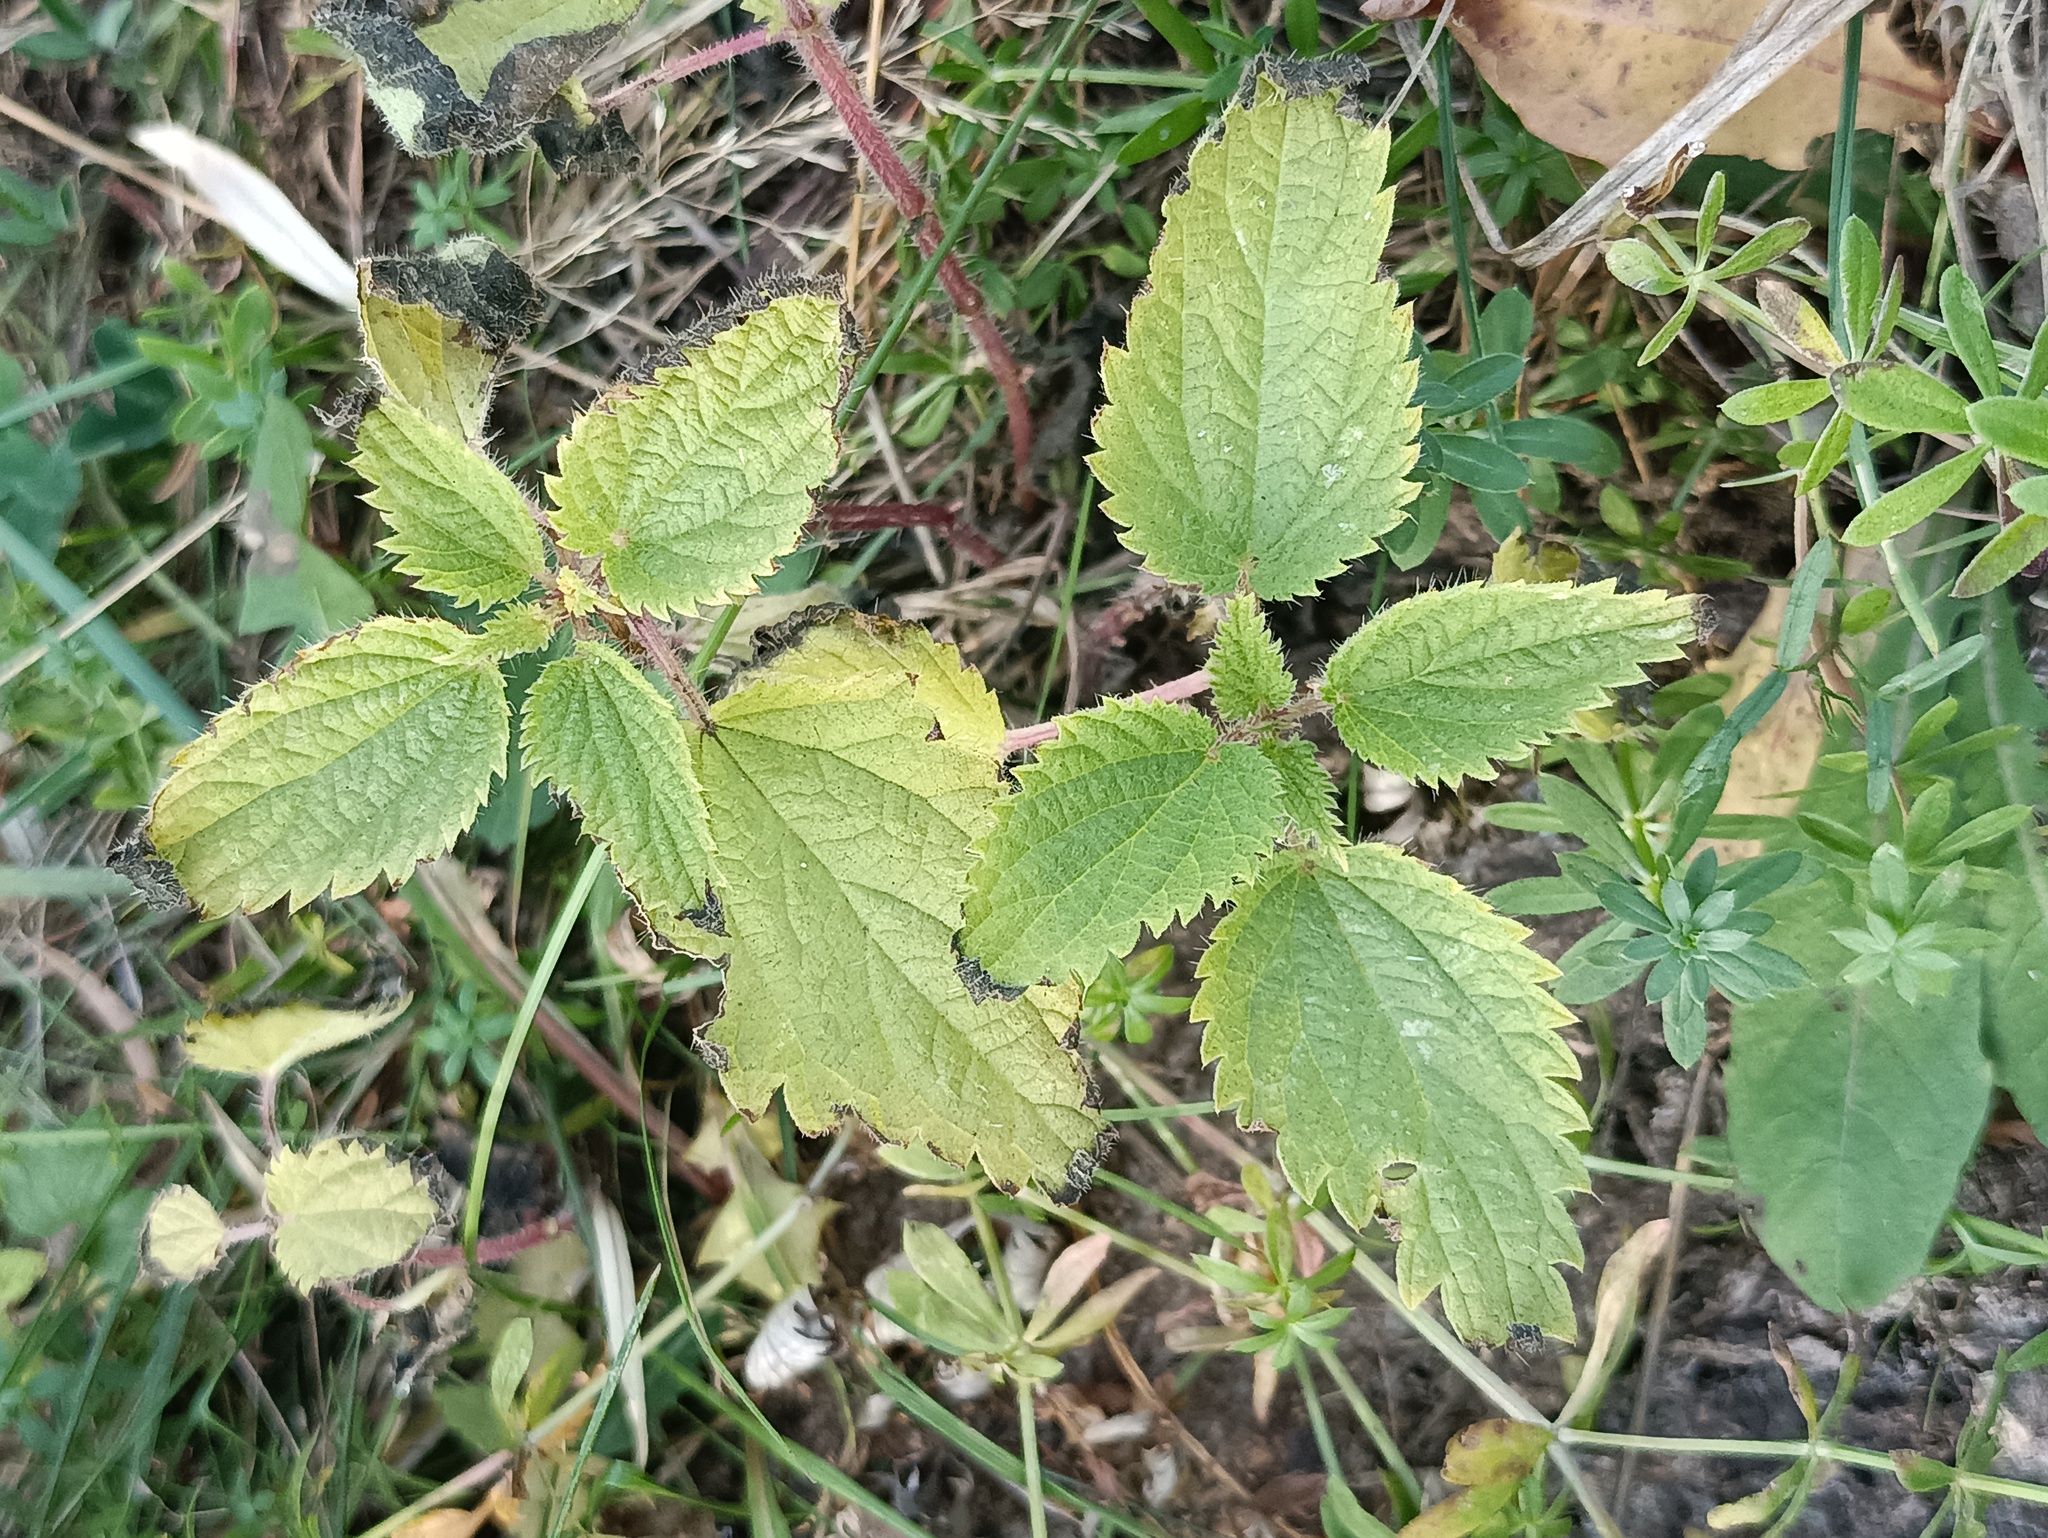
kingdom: Plantae
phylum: Tracheophyta
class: Magnoliopsida
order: Rosales
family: Urticaceae
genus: Urtica
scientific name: Urtica dioica
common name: Common nettle
